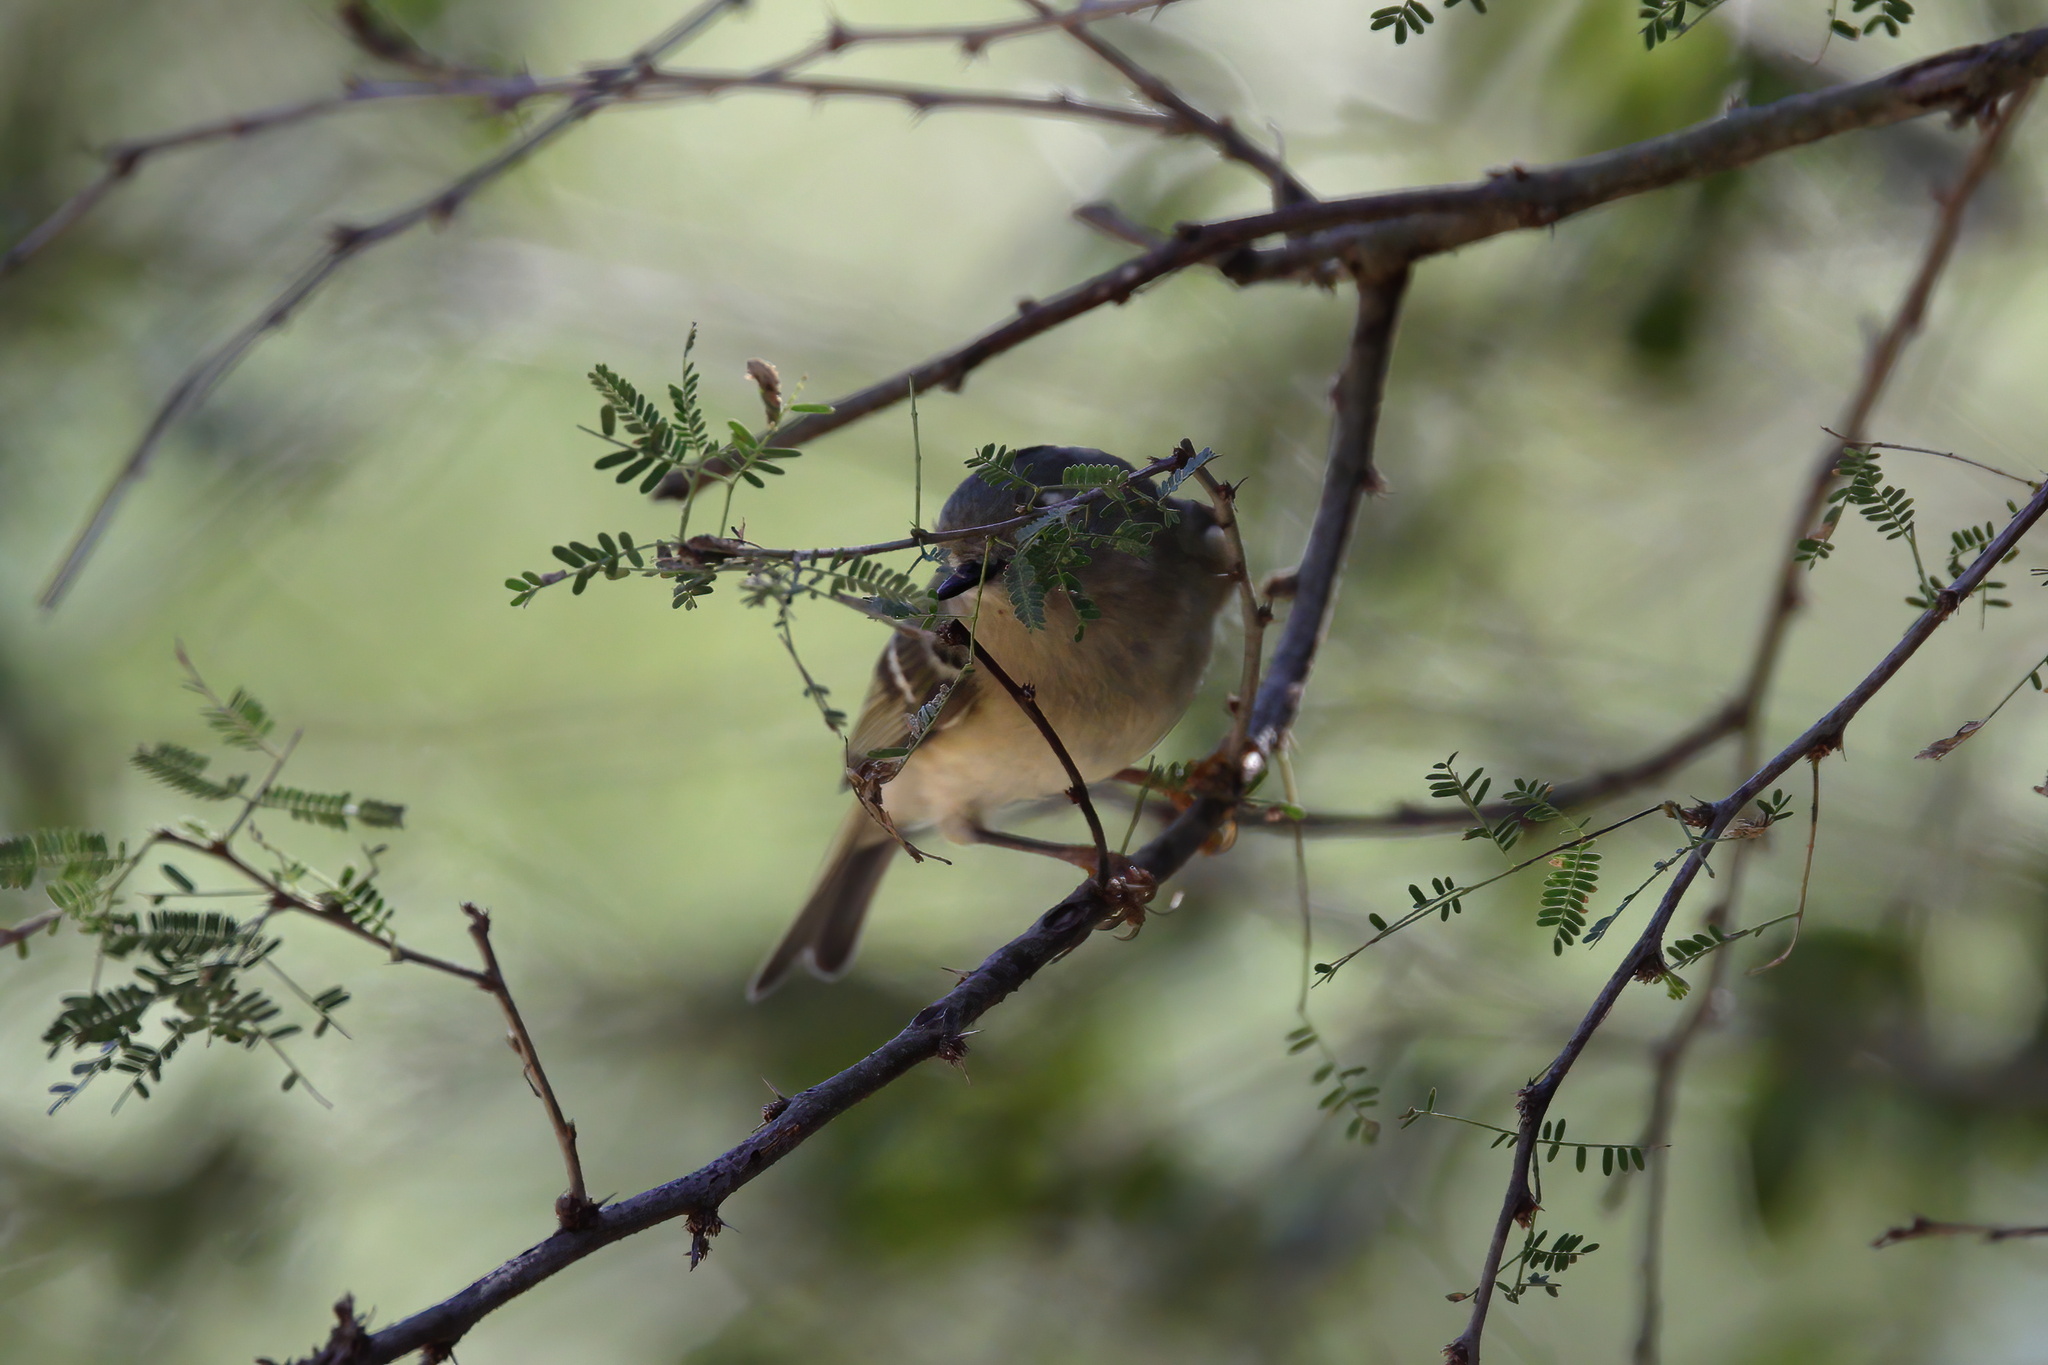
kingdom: Animalia
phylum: Chordata
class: Aves
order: Passeriformes
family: Regulidae
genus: Regulus
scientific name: Regulus calendula
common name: Ruby-crowned kinglet
